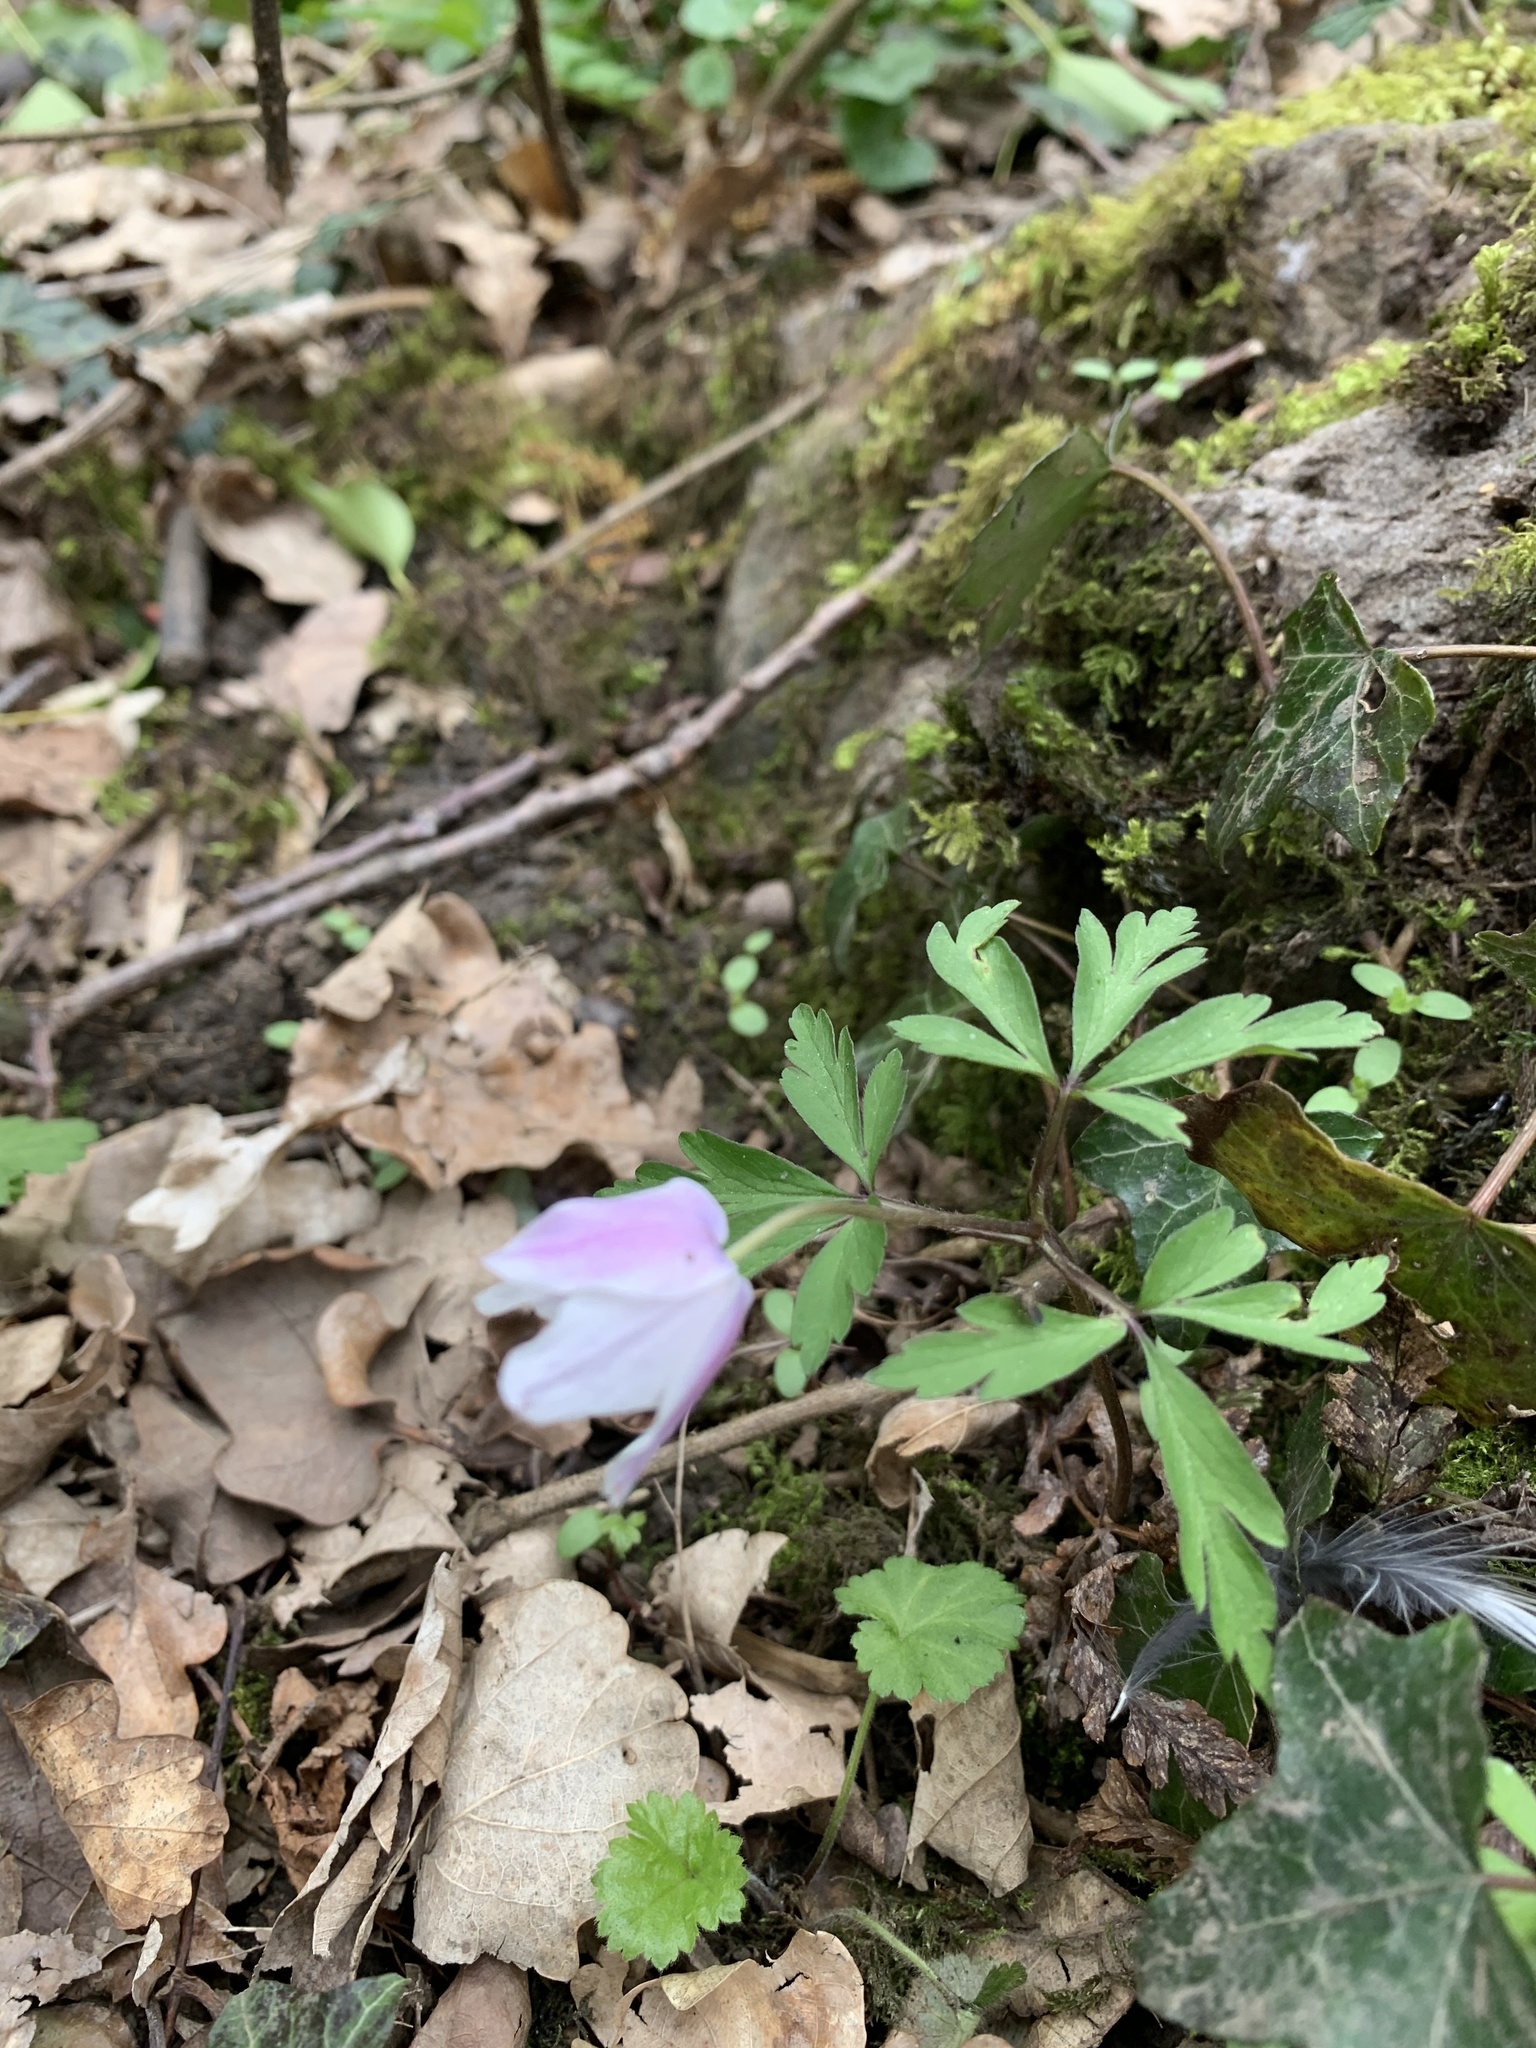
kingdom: Plantae
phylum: Tracheophyta
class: Magnoliopsida
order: Ranunculales
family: Ranunculaceae
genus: Anemone
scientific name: Anemone nemorosa
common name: Wood anemone
